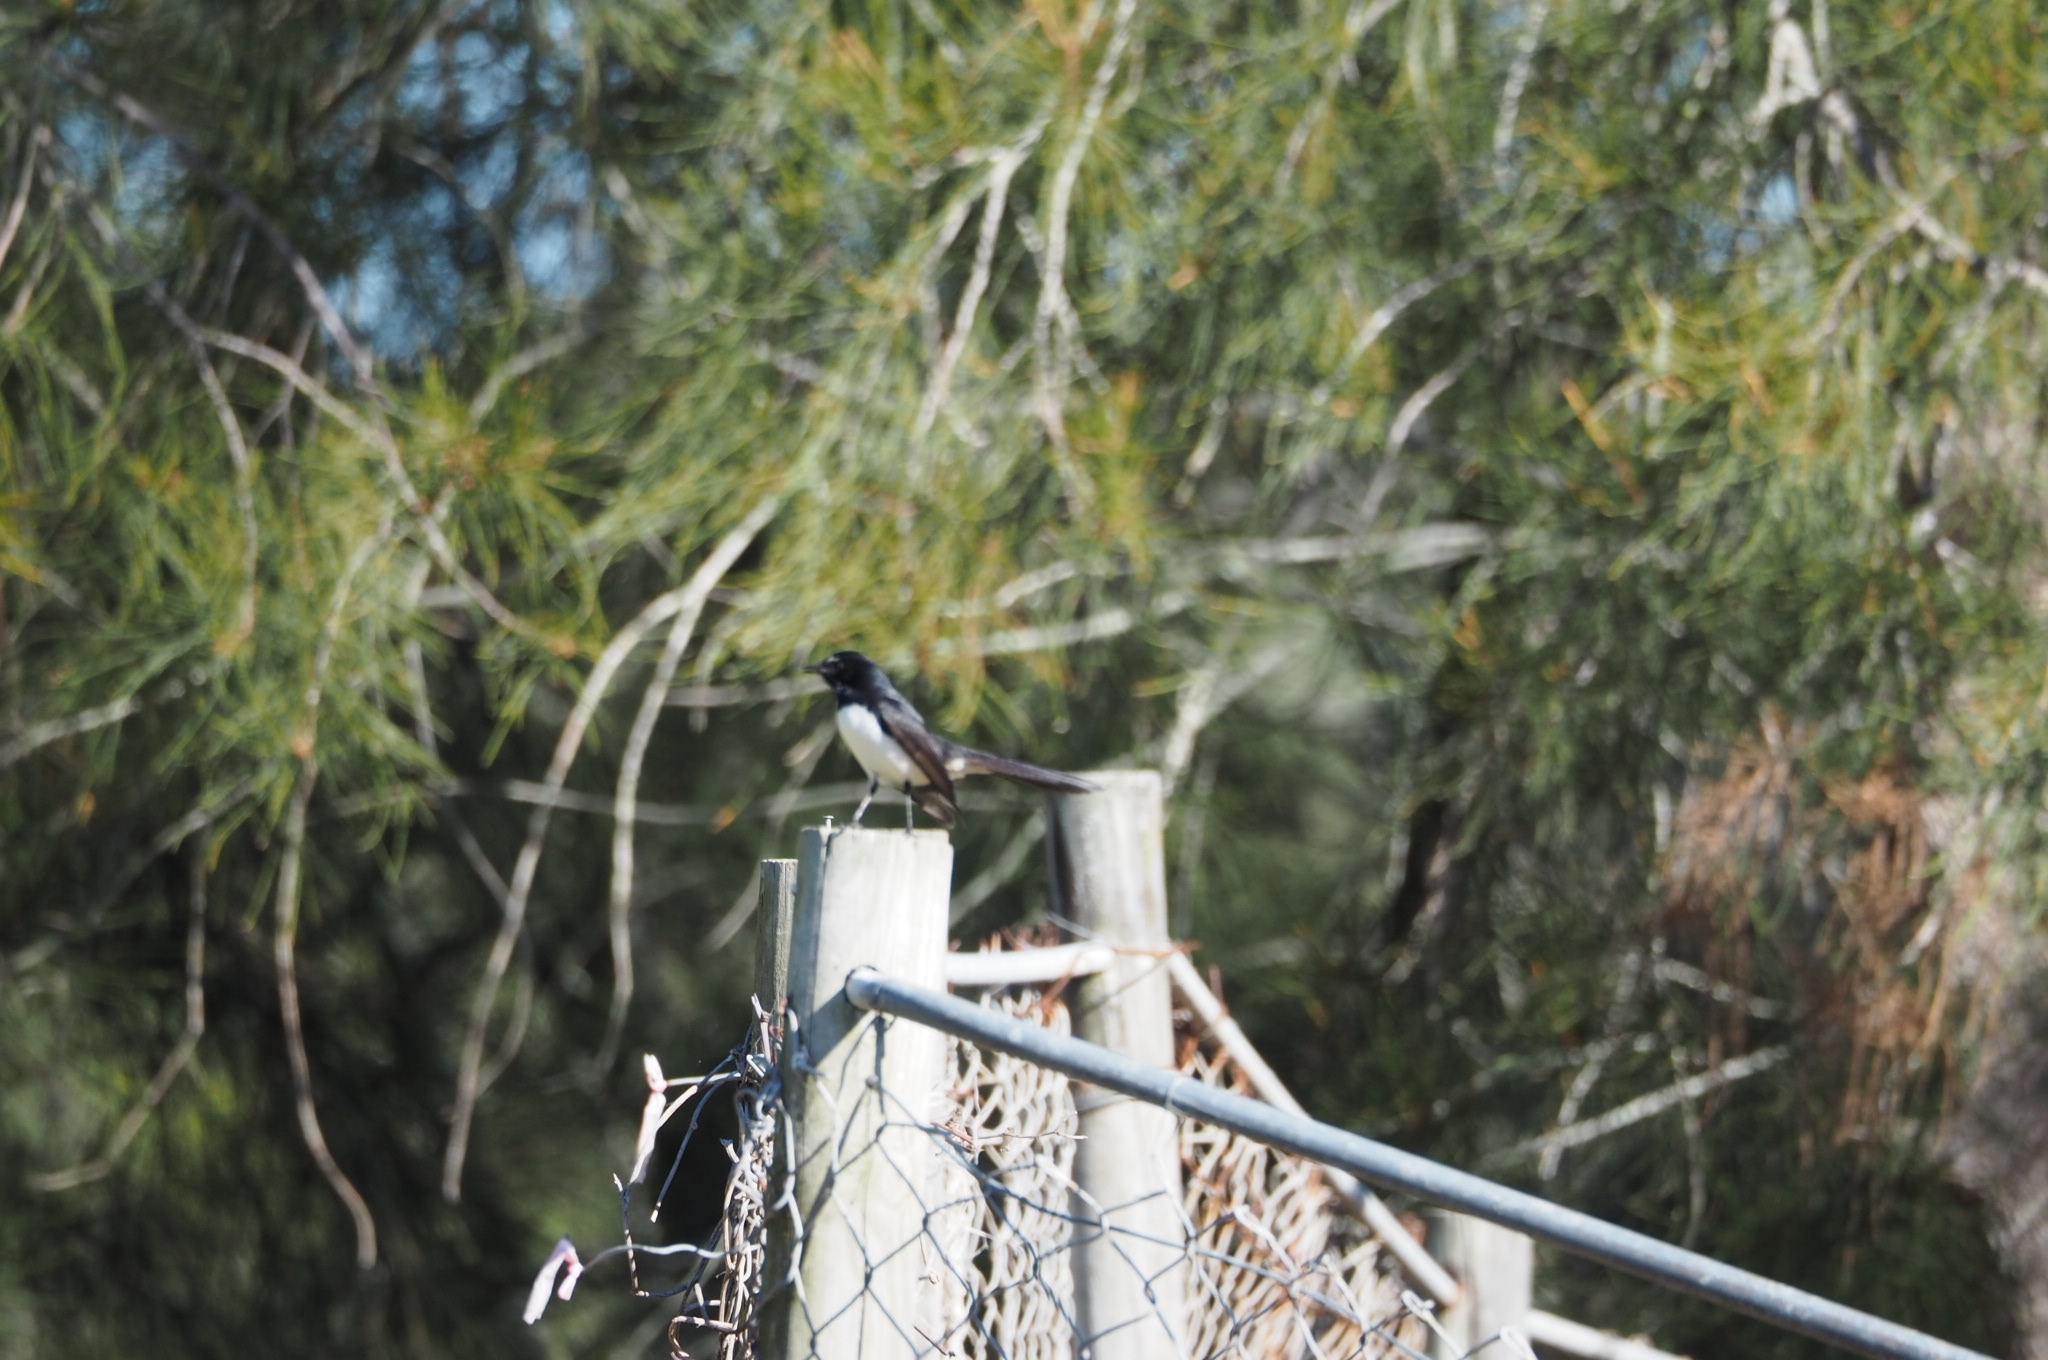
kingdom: Animalia
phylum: Chordata
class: Aves
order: Passeriformes
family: Rhipiduridae
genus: Rhipidura
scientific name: Rhipidura leucophrys
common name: Willie wagtail
